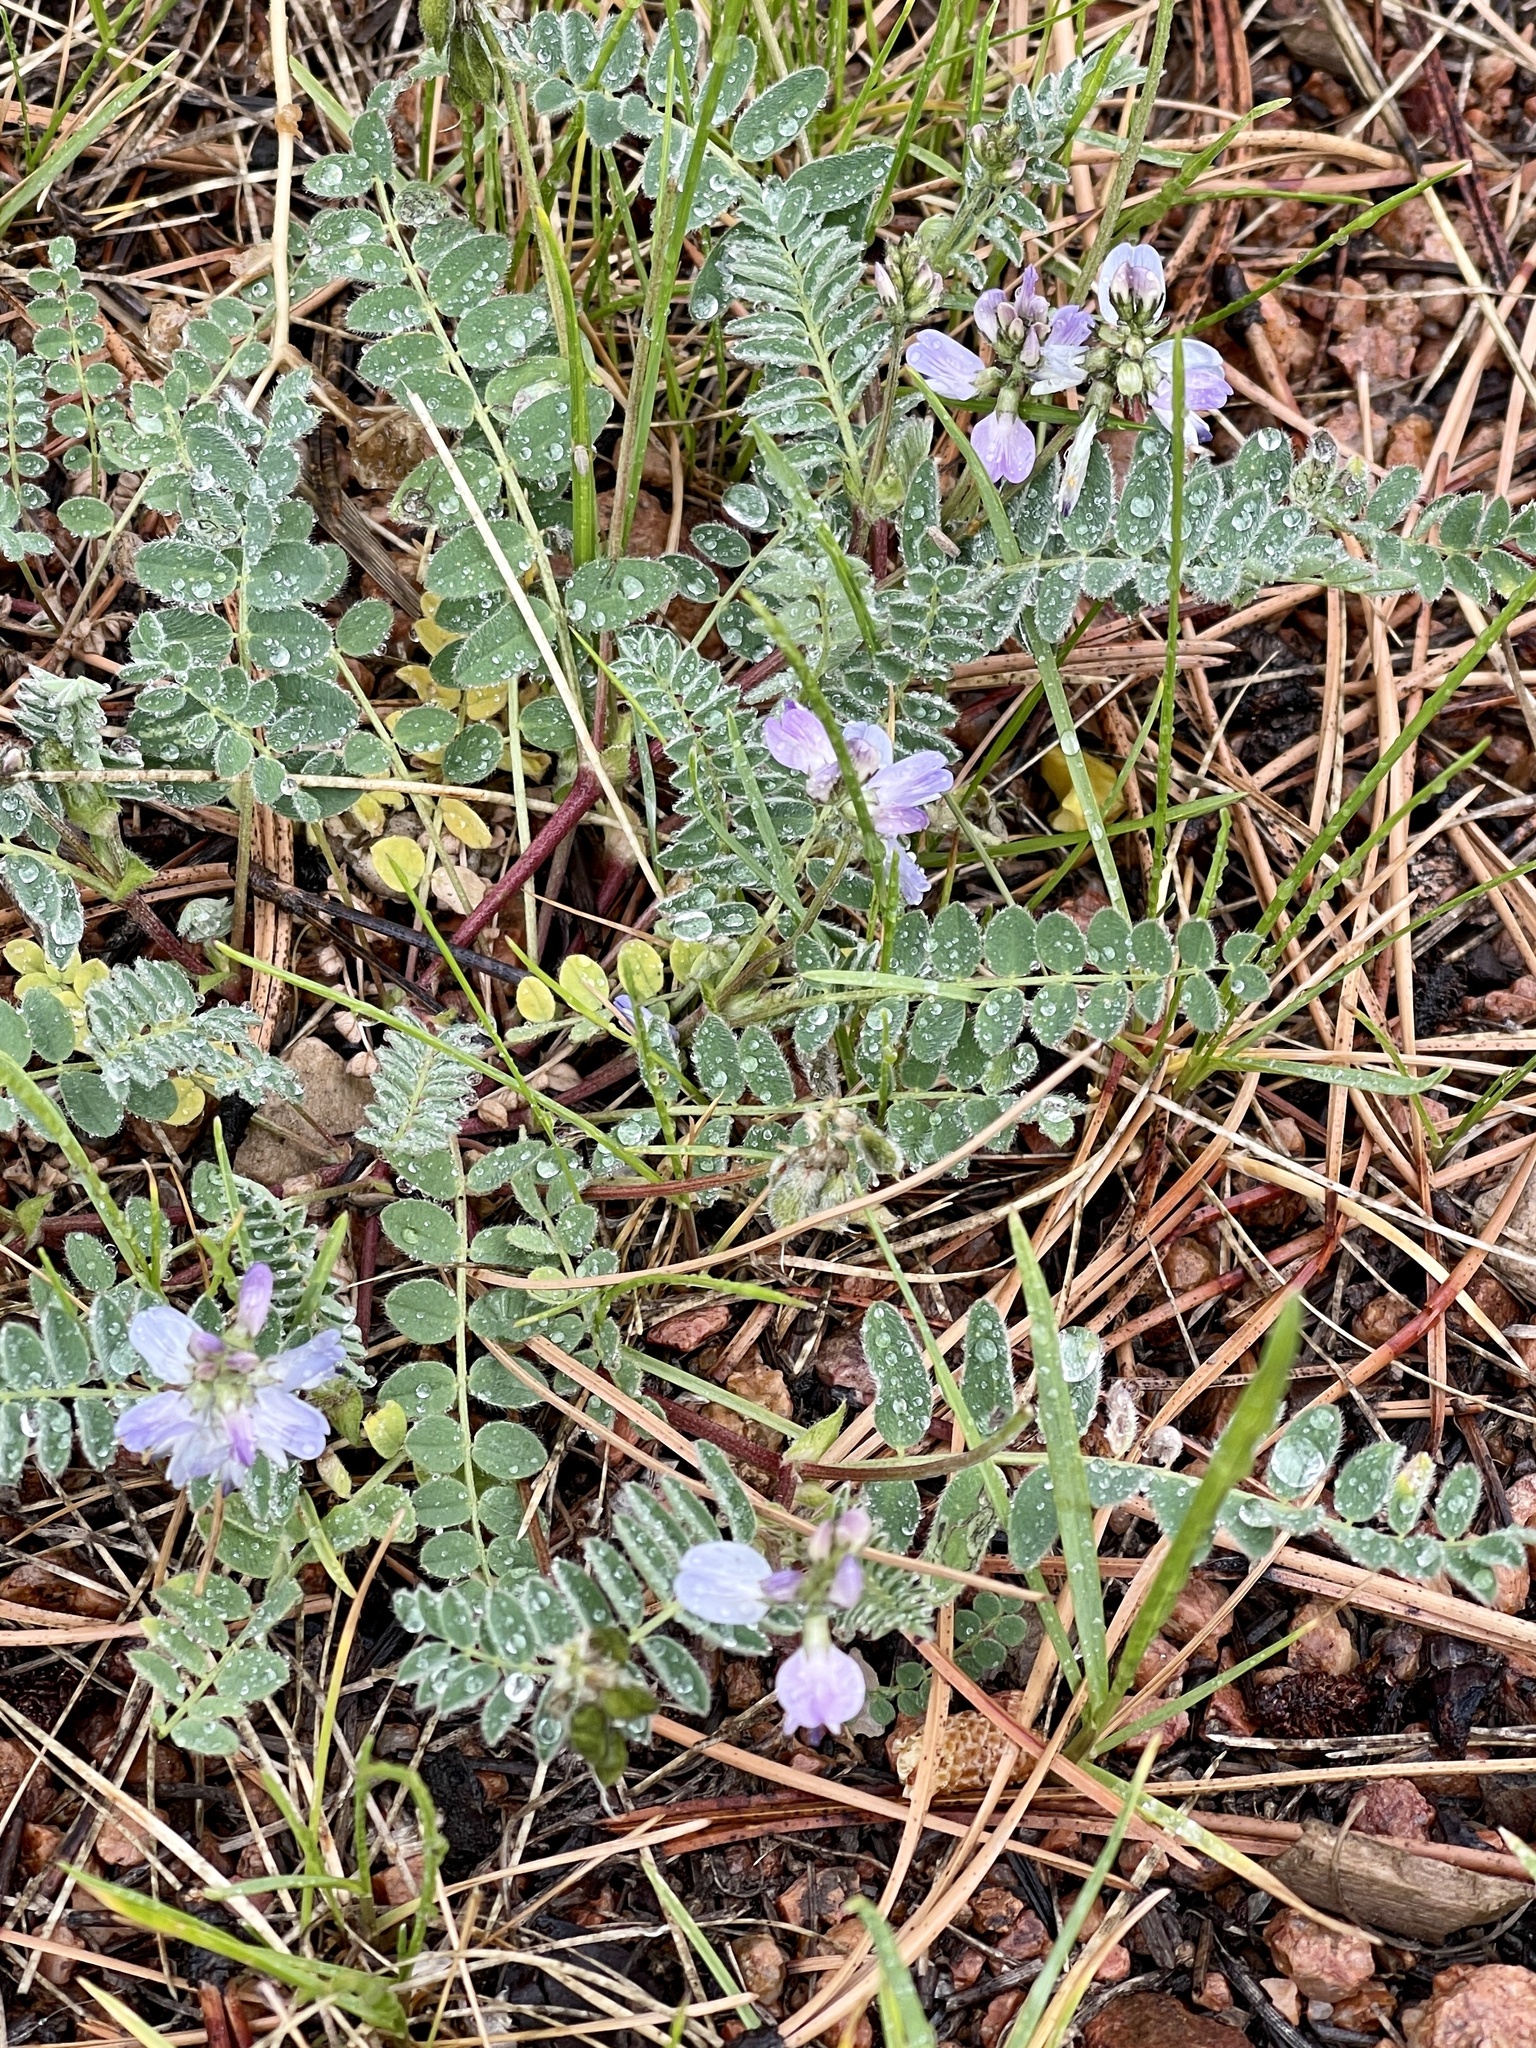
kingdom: Plantae
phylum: Tracheophyta
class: Magnoliopsida
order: Fabales
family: Fabaceae
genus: Astragalus
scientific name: Astragalus alpinus
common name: Alpine milk-vetch
